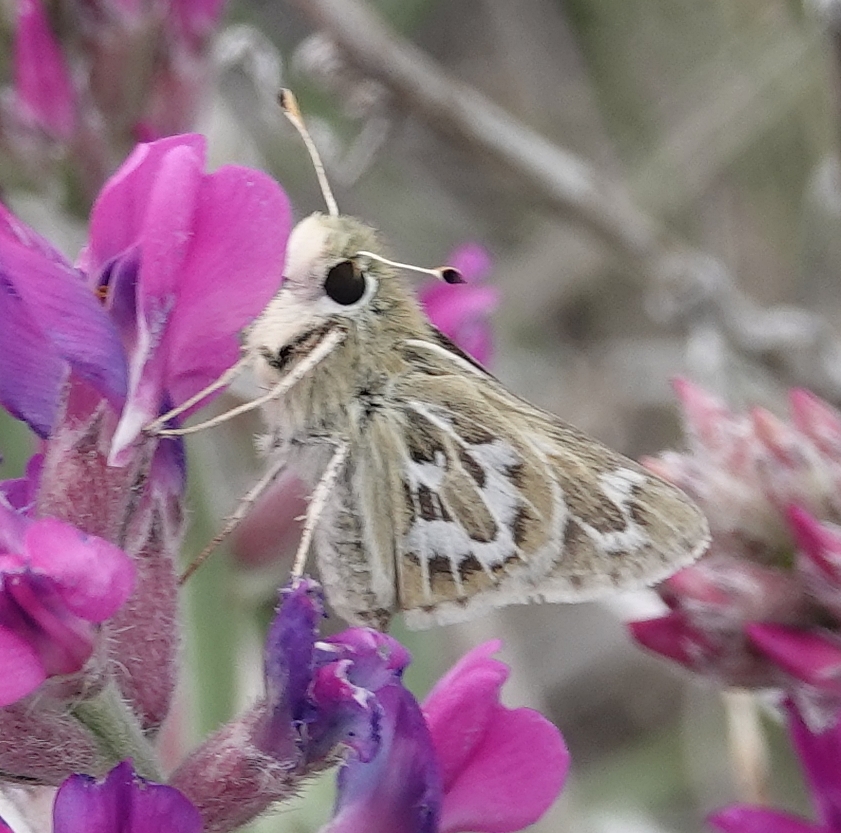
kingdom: Animalia
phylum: Arthropoda
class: Insecta
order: Lepidoptera
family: Hesperiidae
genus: Hesperia
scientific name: Hesperia uncas
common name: Uncas skipper
